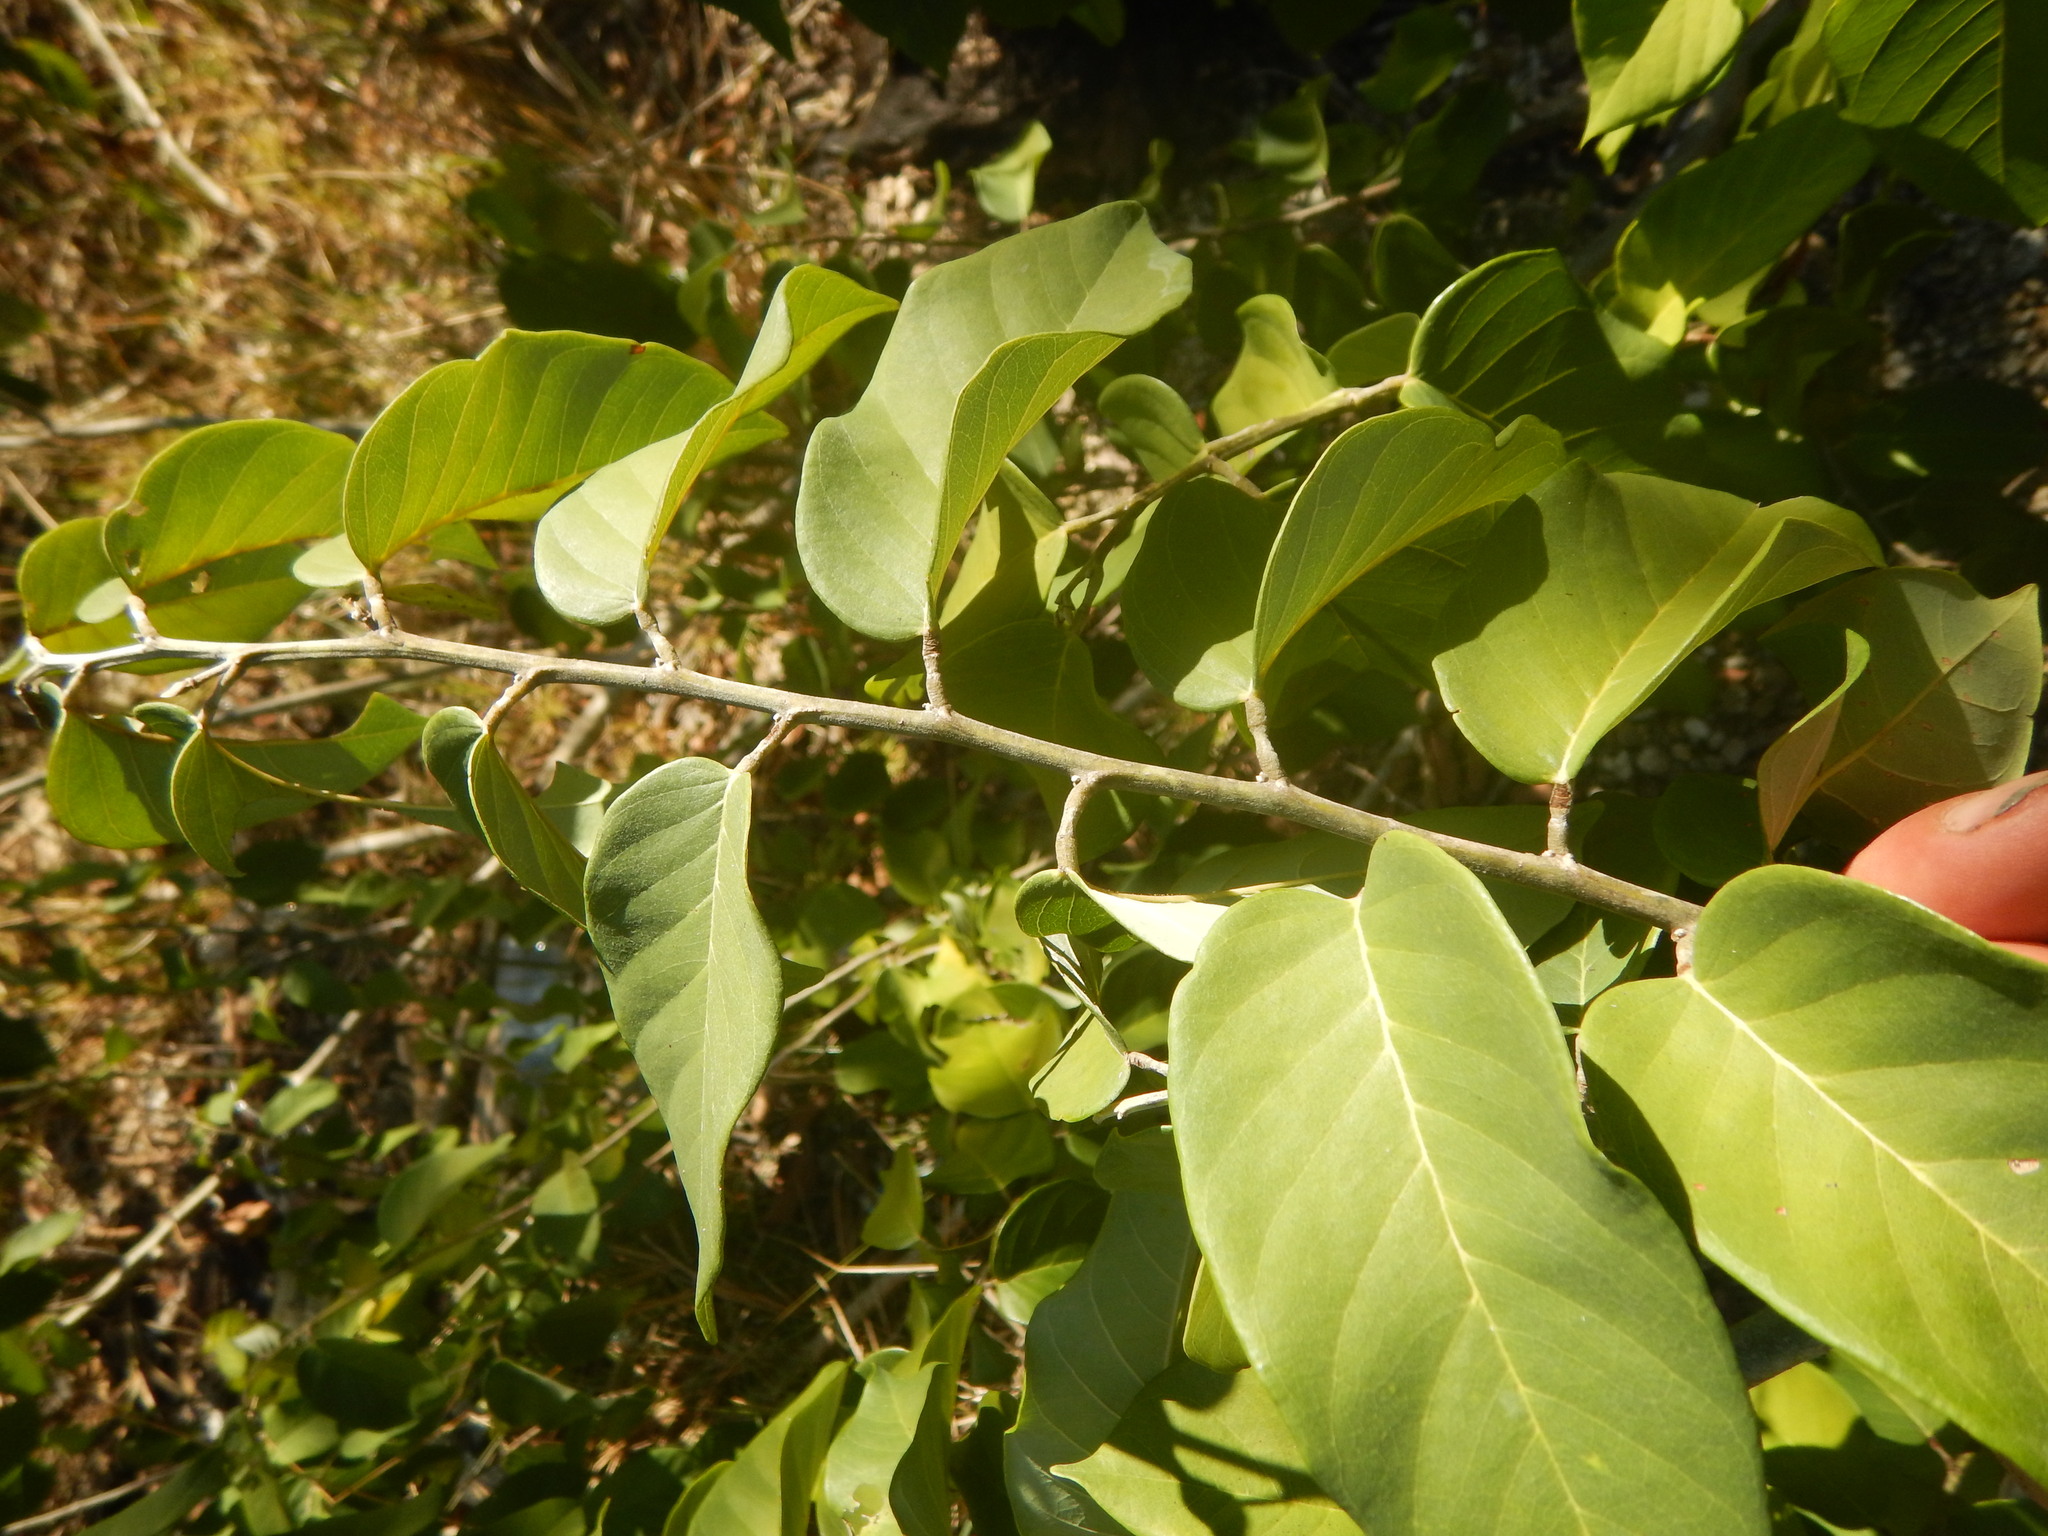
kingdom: Plantae
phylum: Tracheophyta
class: Magnoliopsida
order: Fabales
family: Fabaceae
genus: Dalbergia
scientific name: Dalbergia ecastaphyllum
